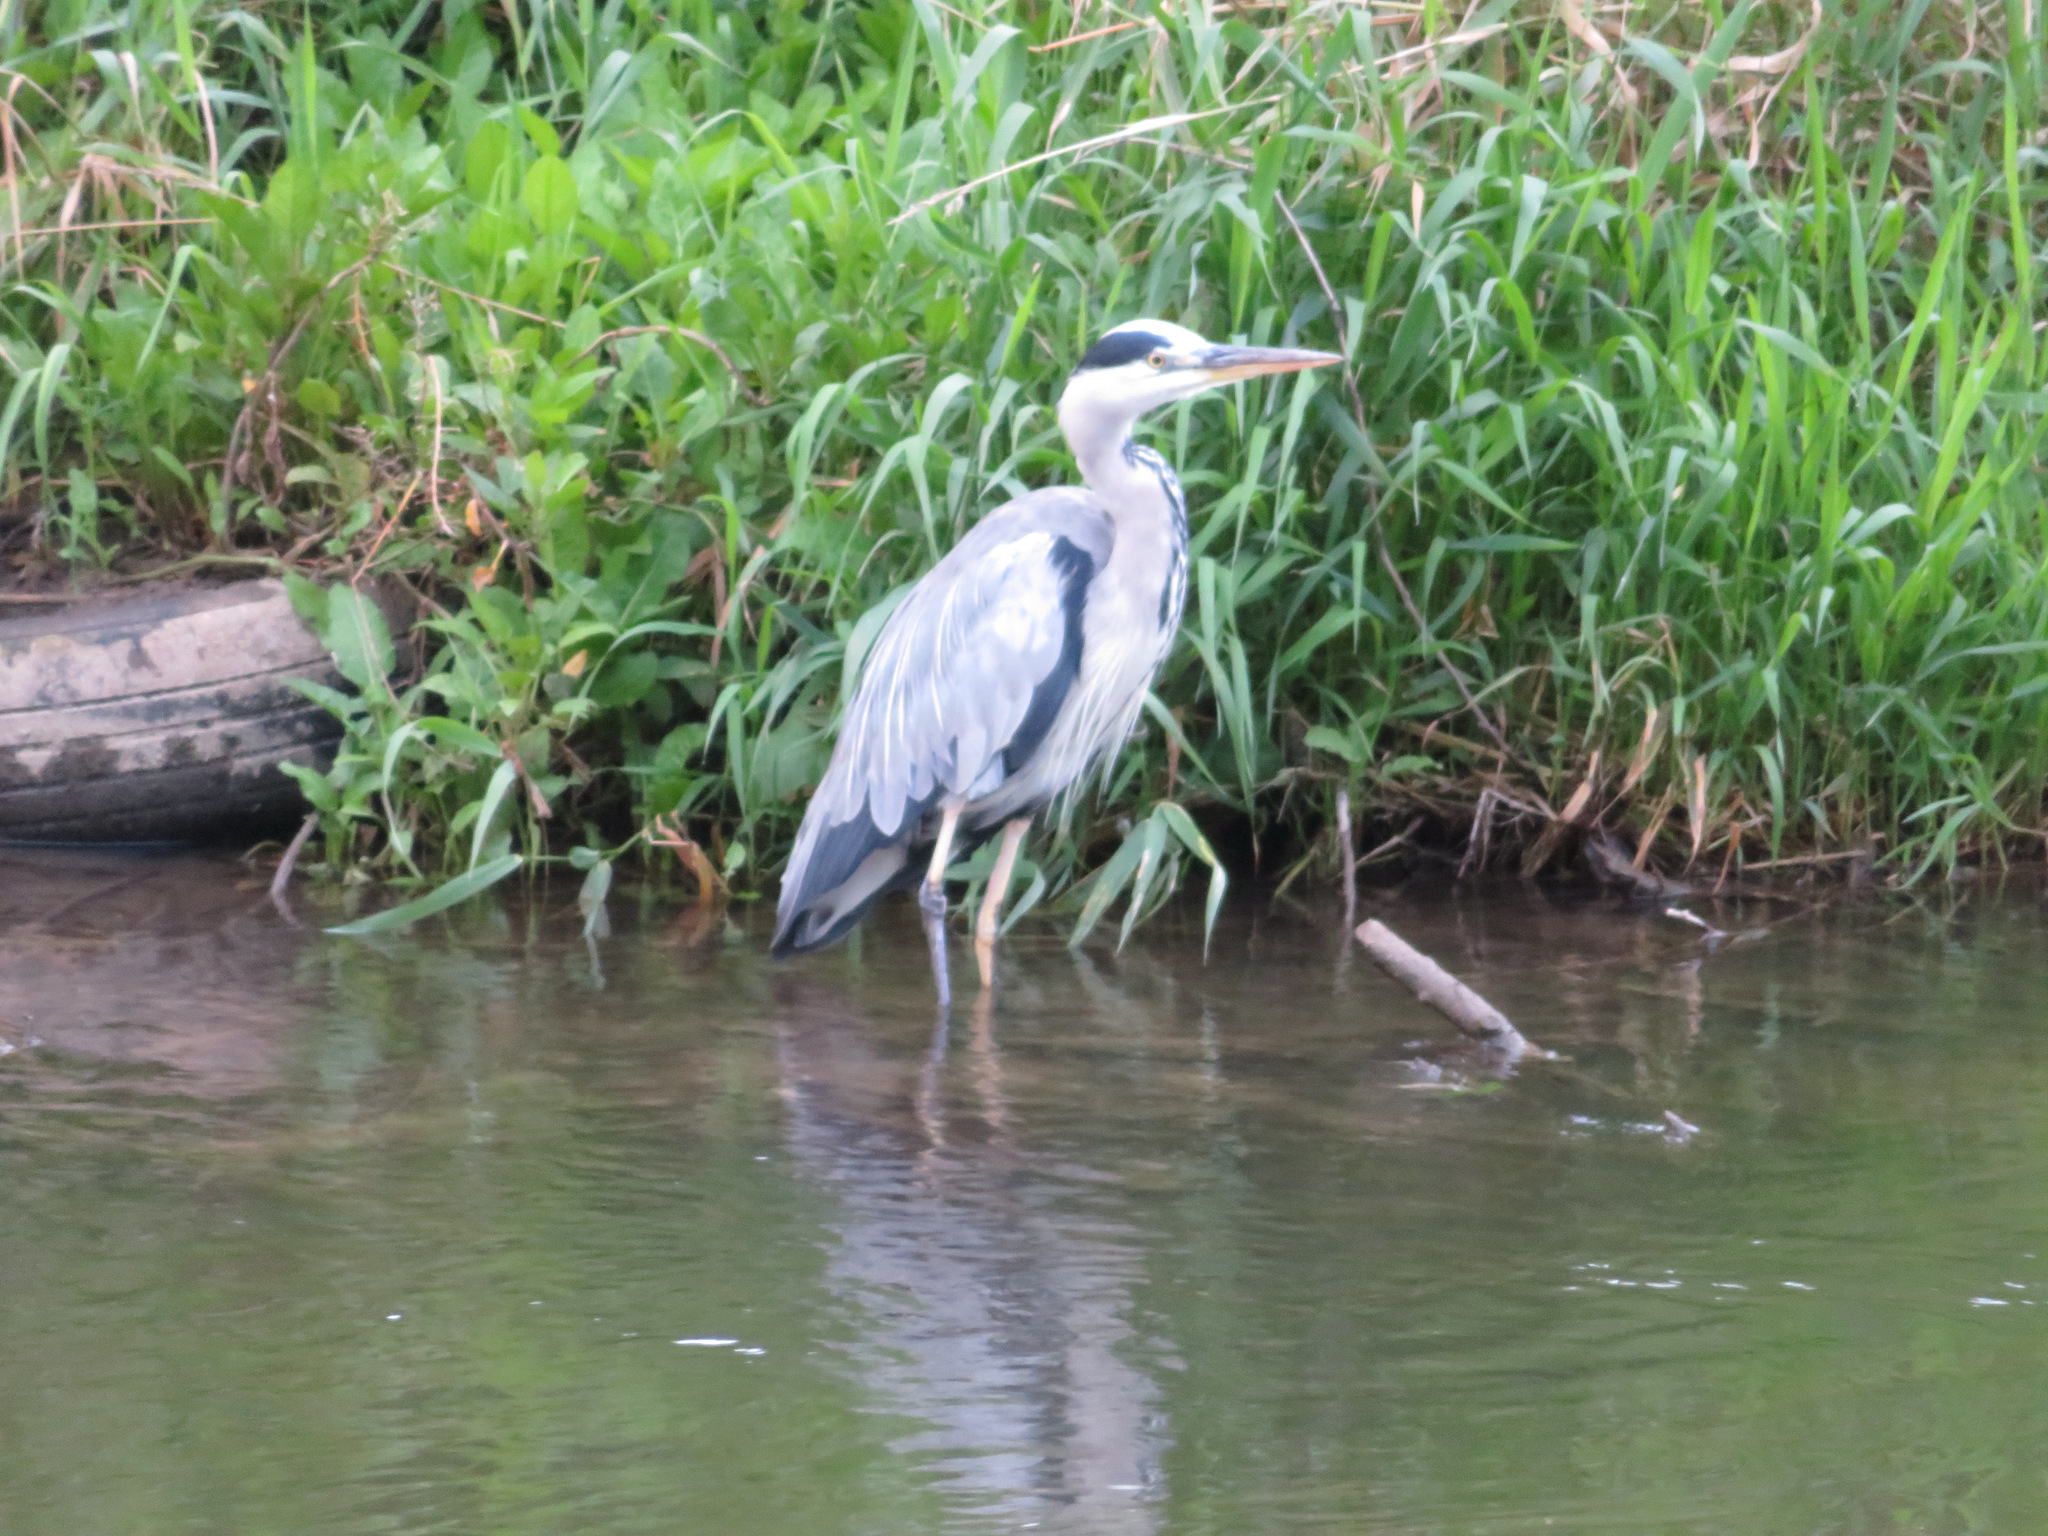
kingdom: Animalia
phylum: Chordata
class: Aves
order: Pelecaniformes
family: Ardeidae
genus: Ardea
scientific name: Ardea cinerea
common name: Grey heron
